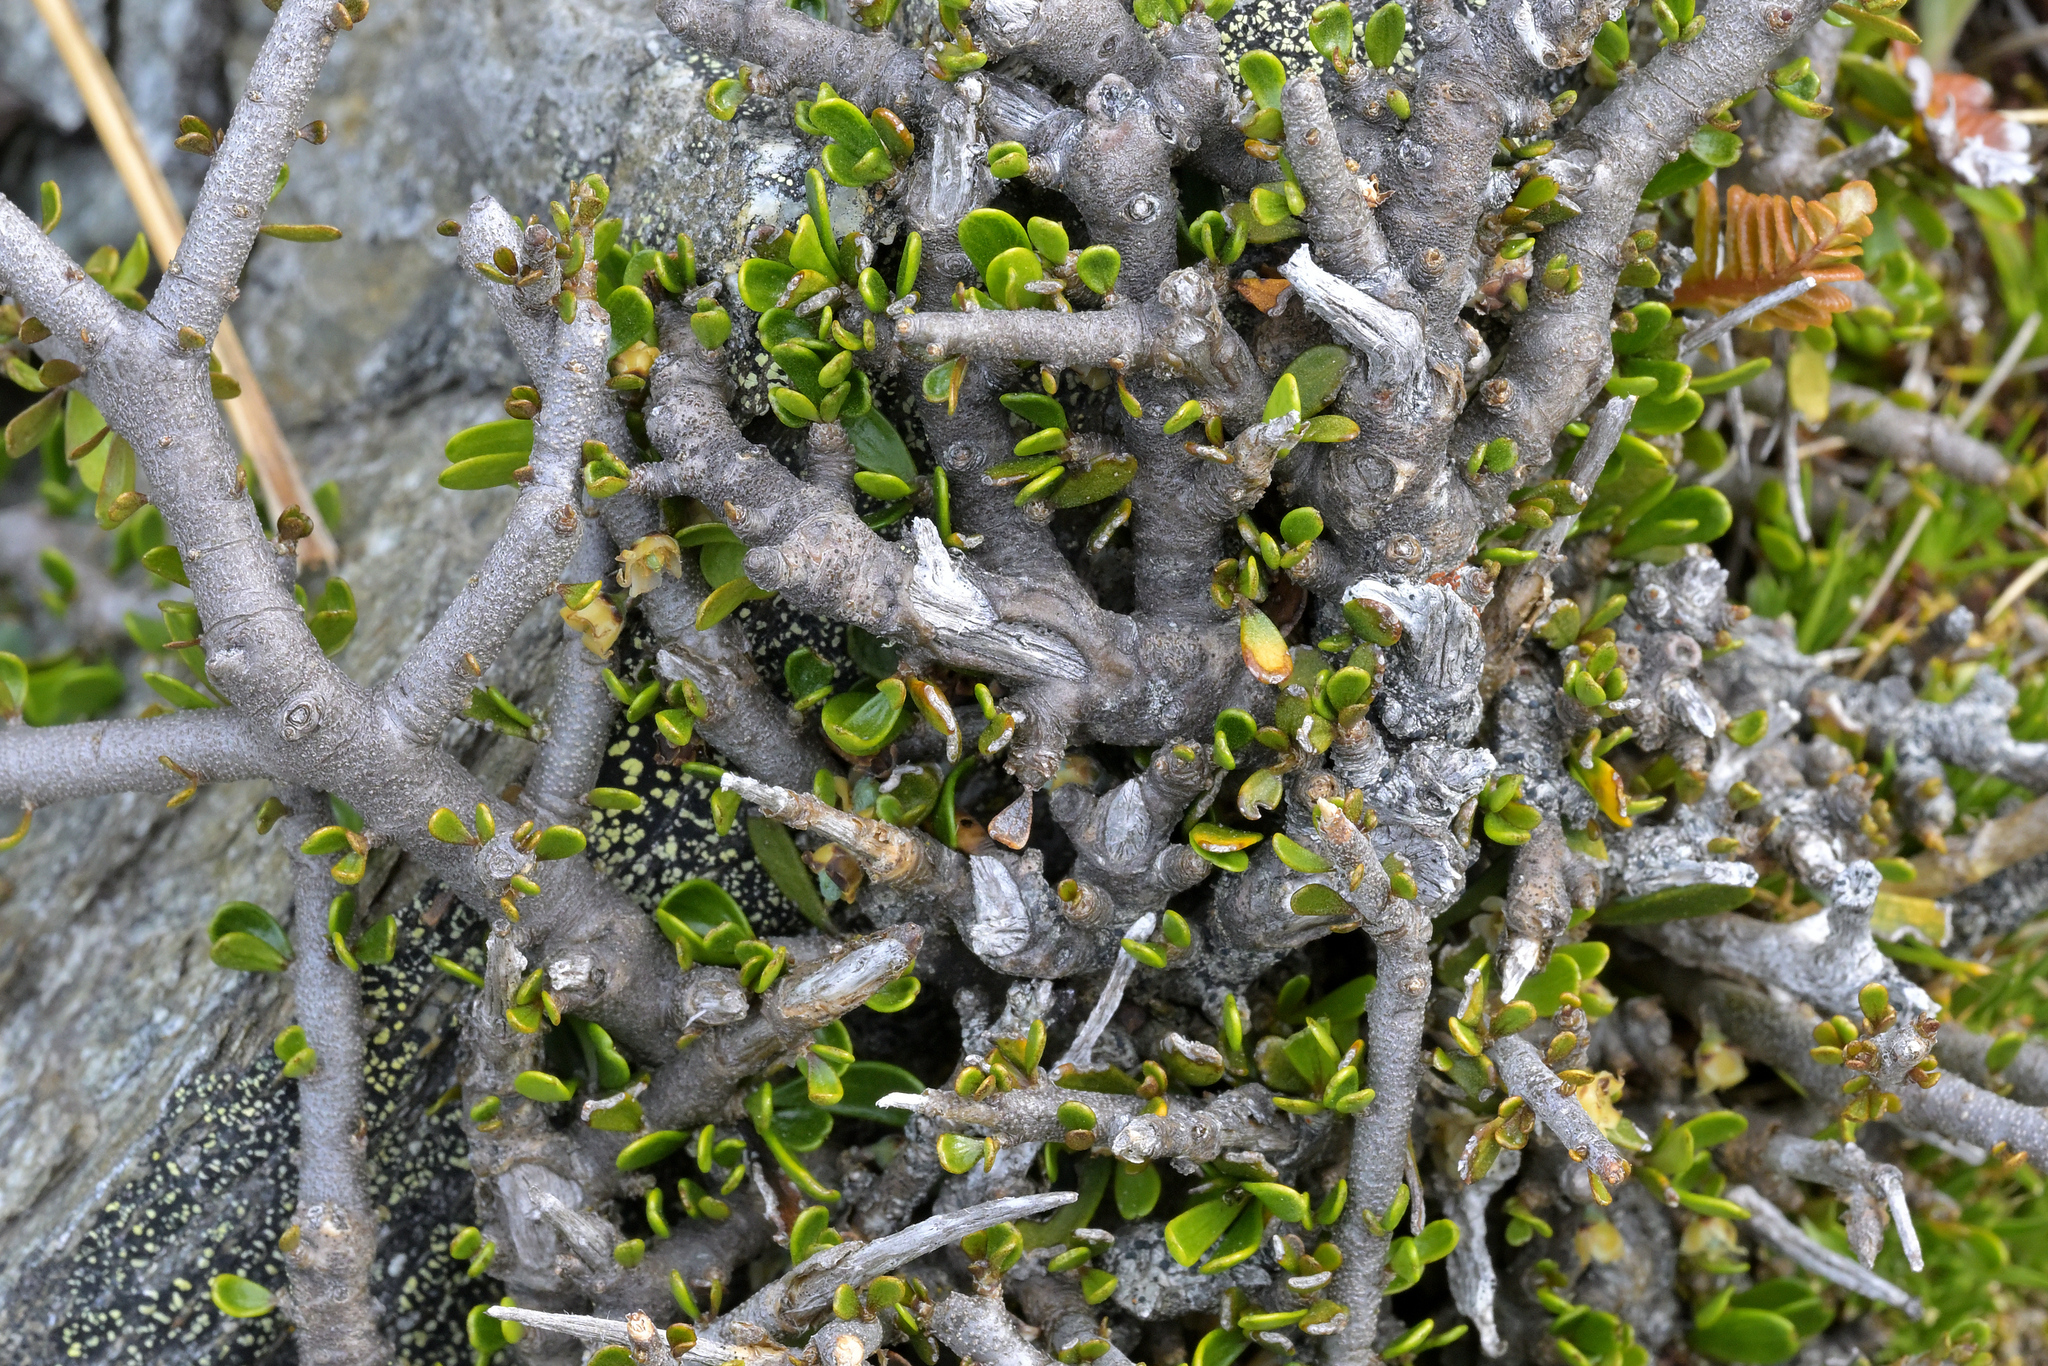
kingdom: Plantae
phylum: Tracheophyta
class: Magnoliopsida
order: Malpighiales
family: Violaceae
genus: Melicytus
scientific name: Melicytus alpinus
